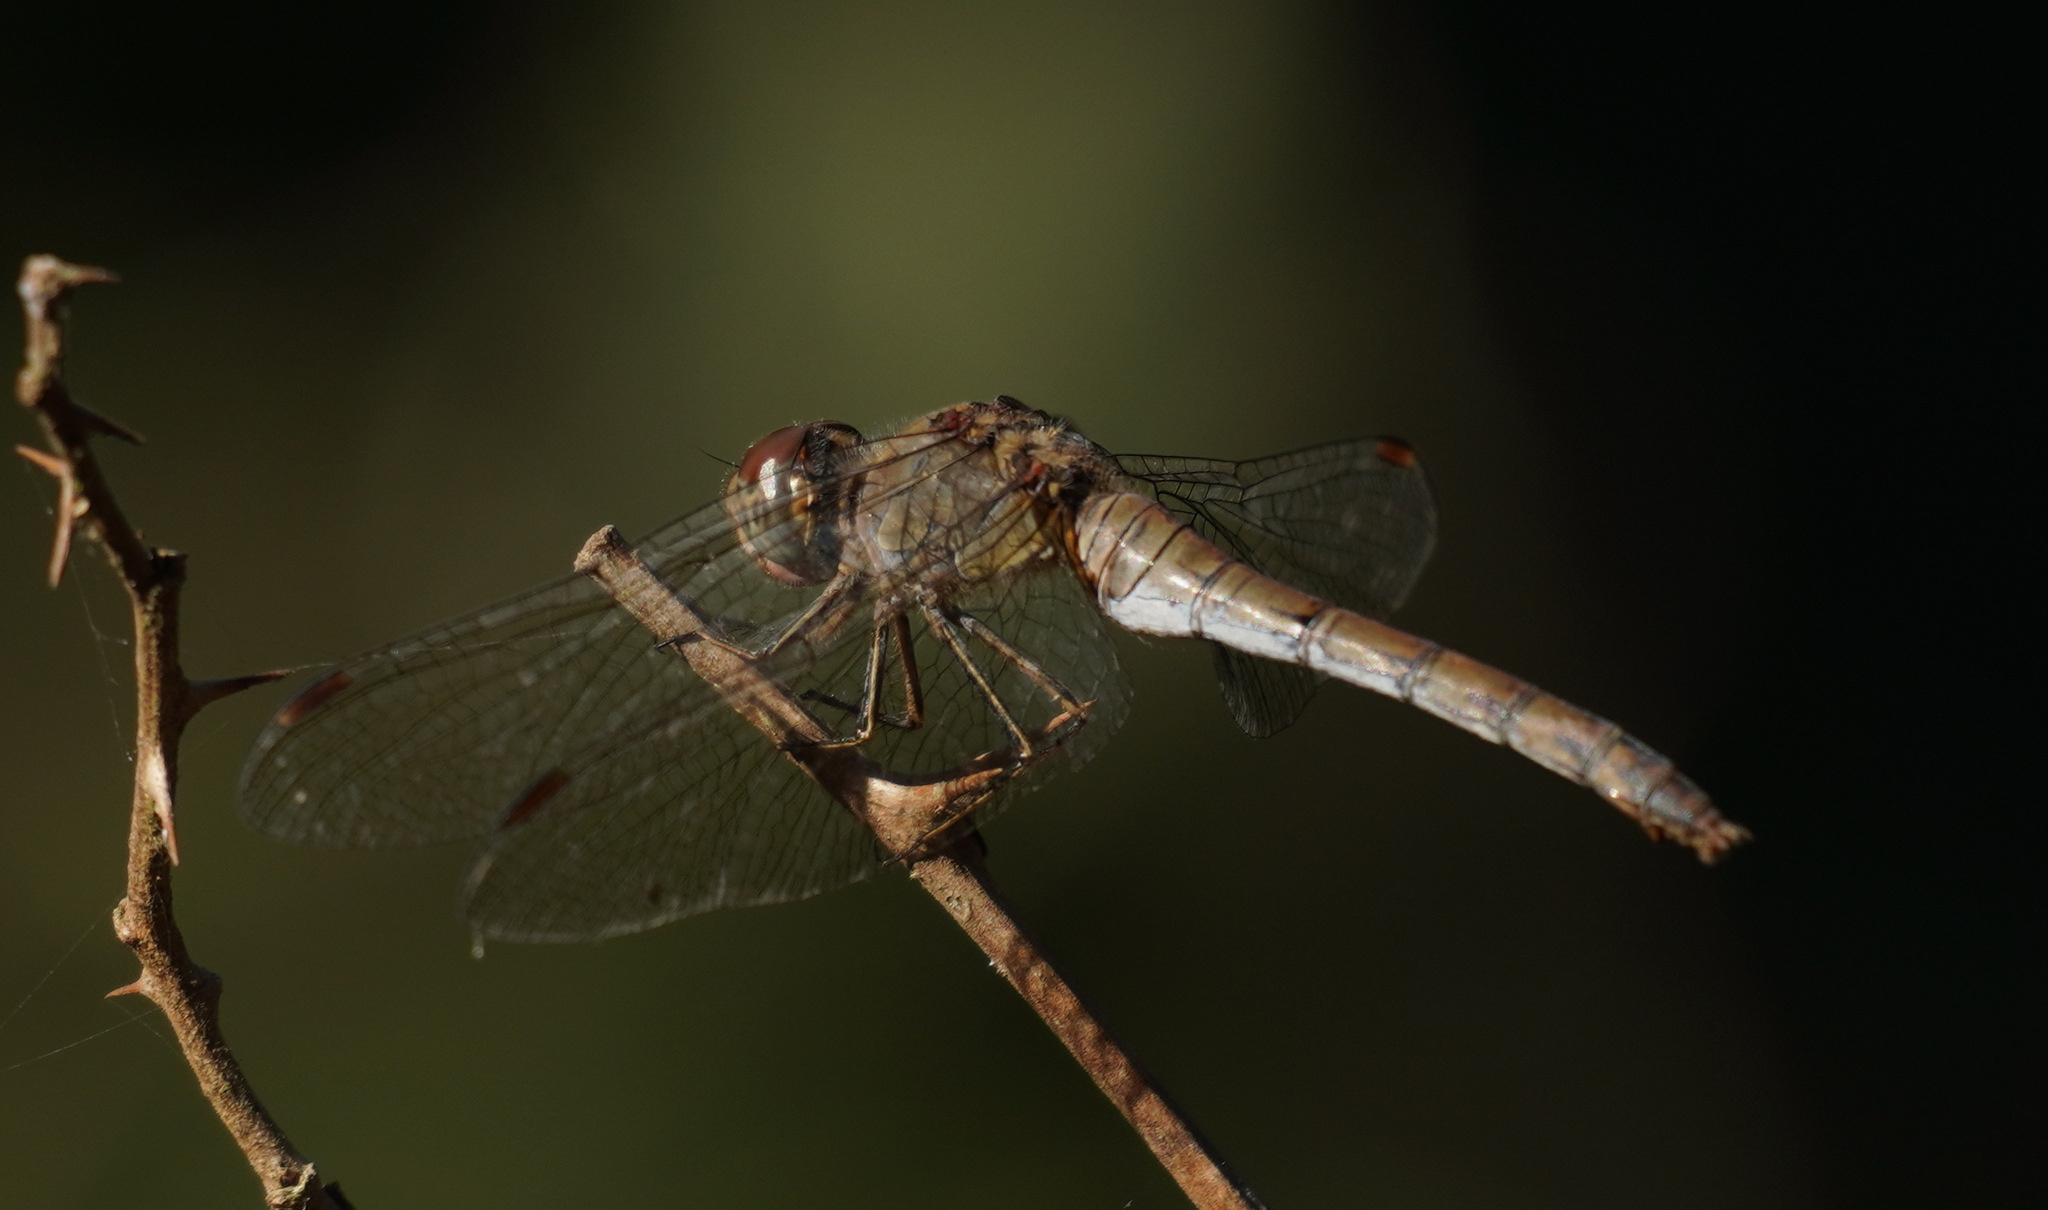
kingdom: Animalia
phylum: Arthropoda
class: Insecta
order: Odonata
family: Libellulidae
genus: Sympetrum
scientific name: Sympetrum striolatum
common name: Common darter
